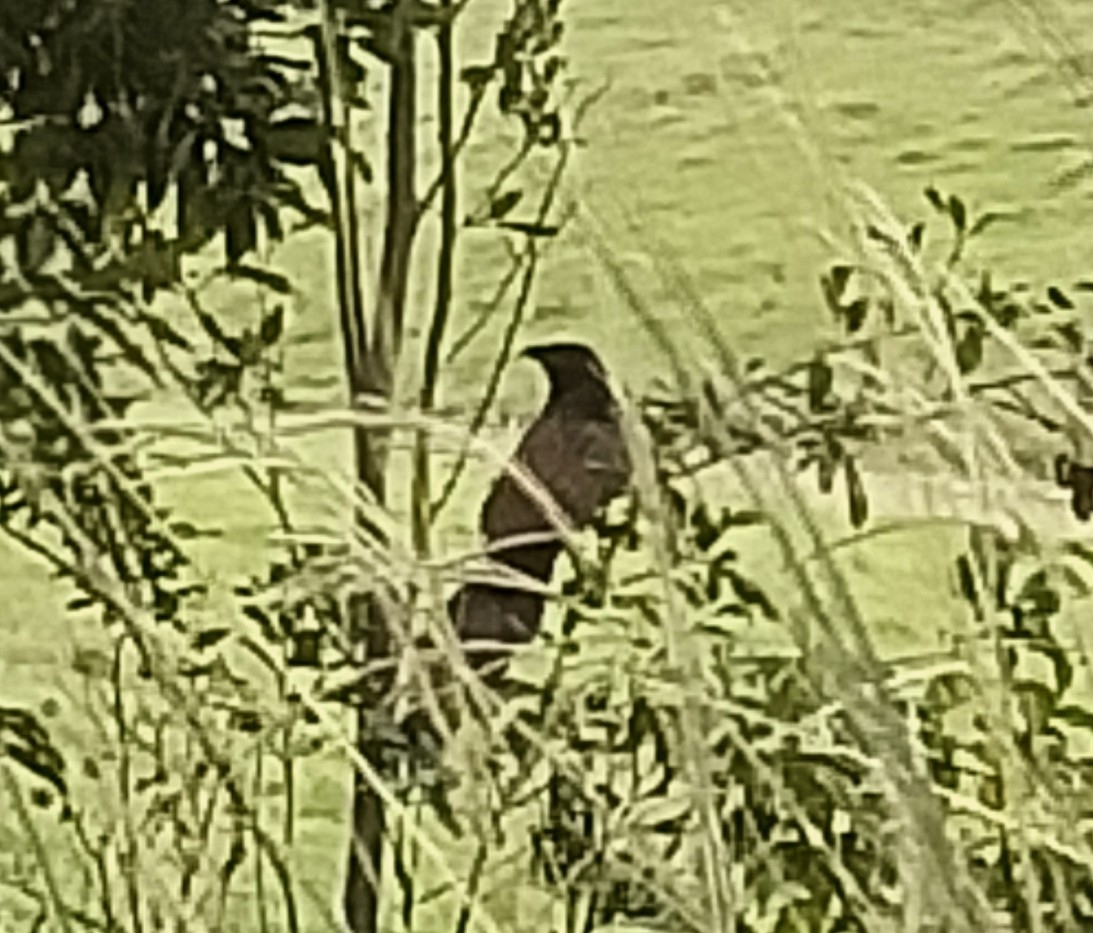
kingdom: Animalia
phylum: Chordata
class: Aves
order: Cuculiformes
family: Cuculidae
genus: Centropus
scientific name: Centropus phasianinus
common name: Pheasant coucal
